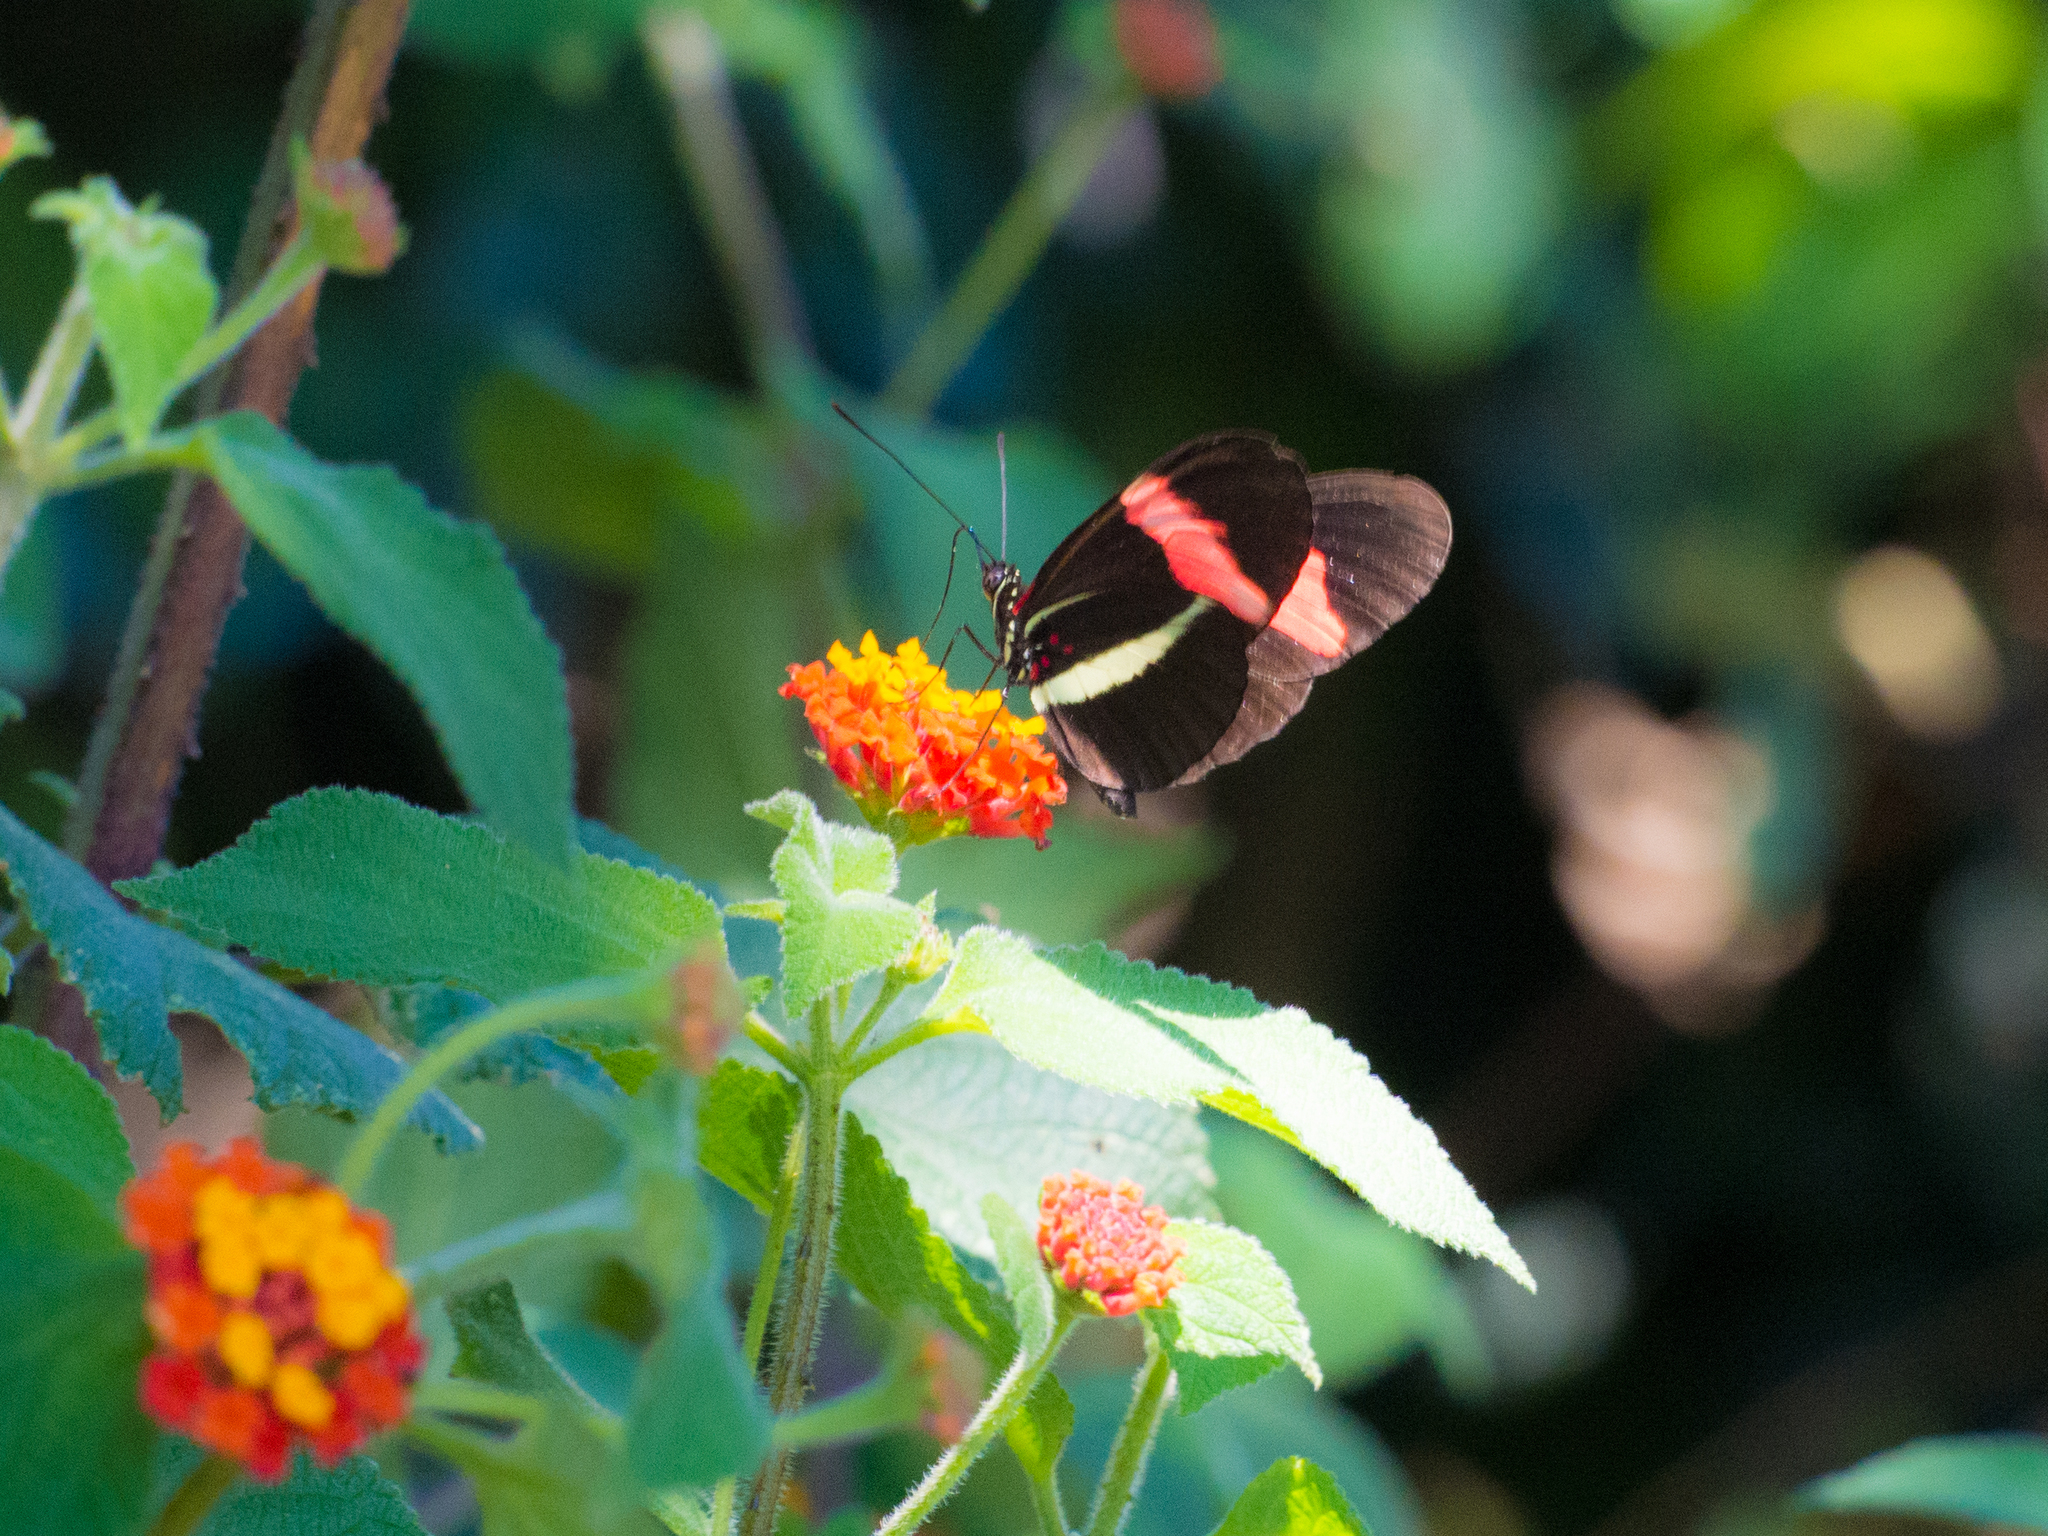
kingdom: Plantae
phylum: Tracheophyta
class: Magnoliopsida
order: Lamiales
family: Verbenaceae
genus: Lantana
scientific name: Lantana camara
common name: Lantana
